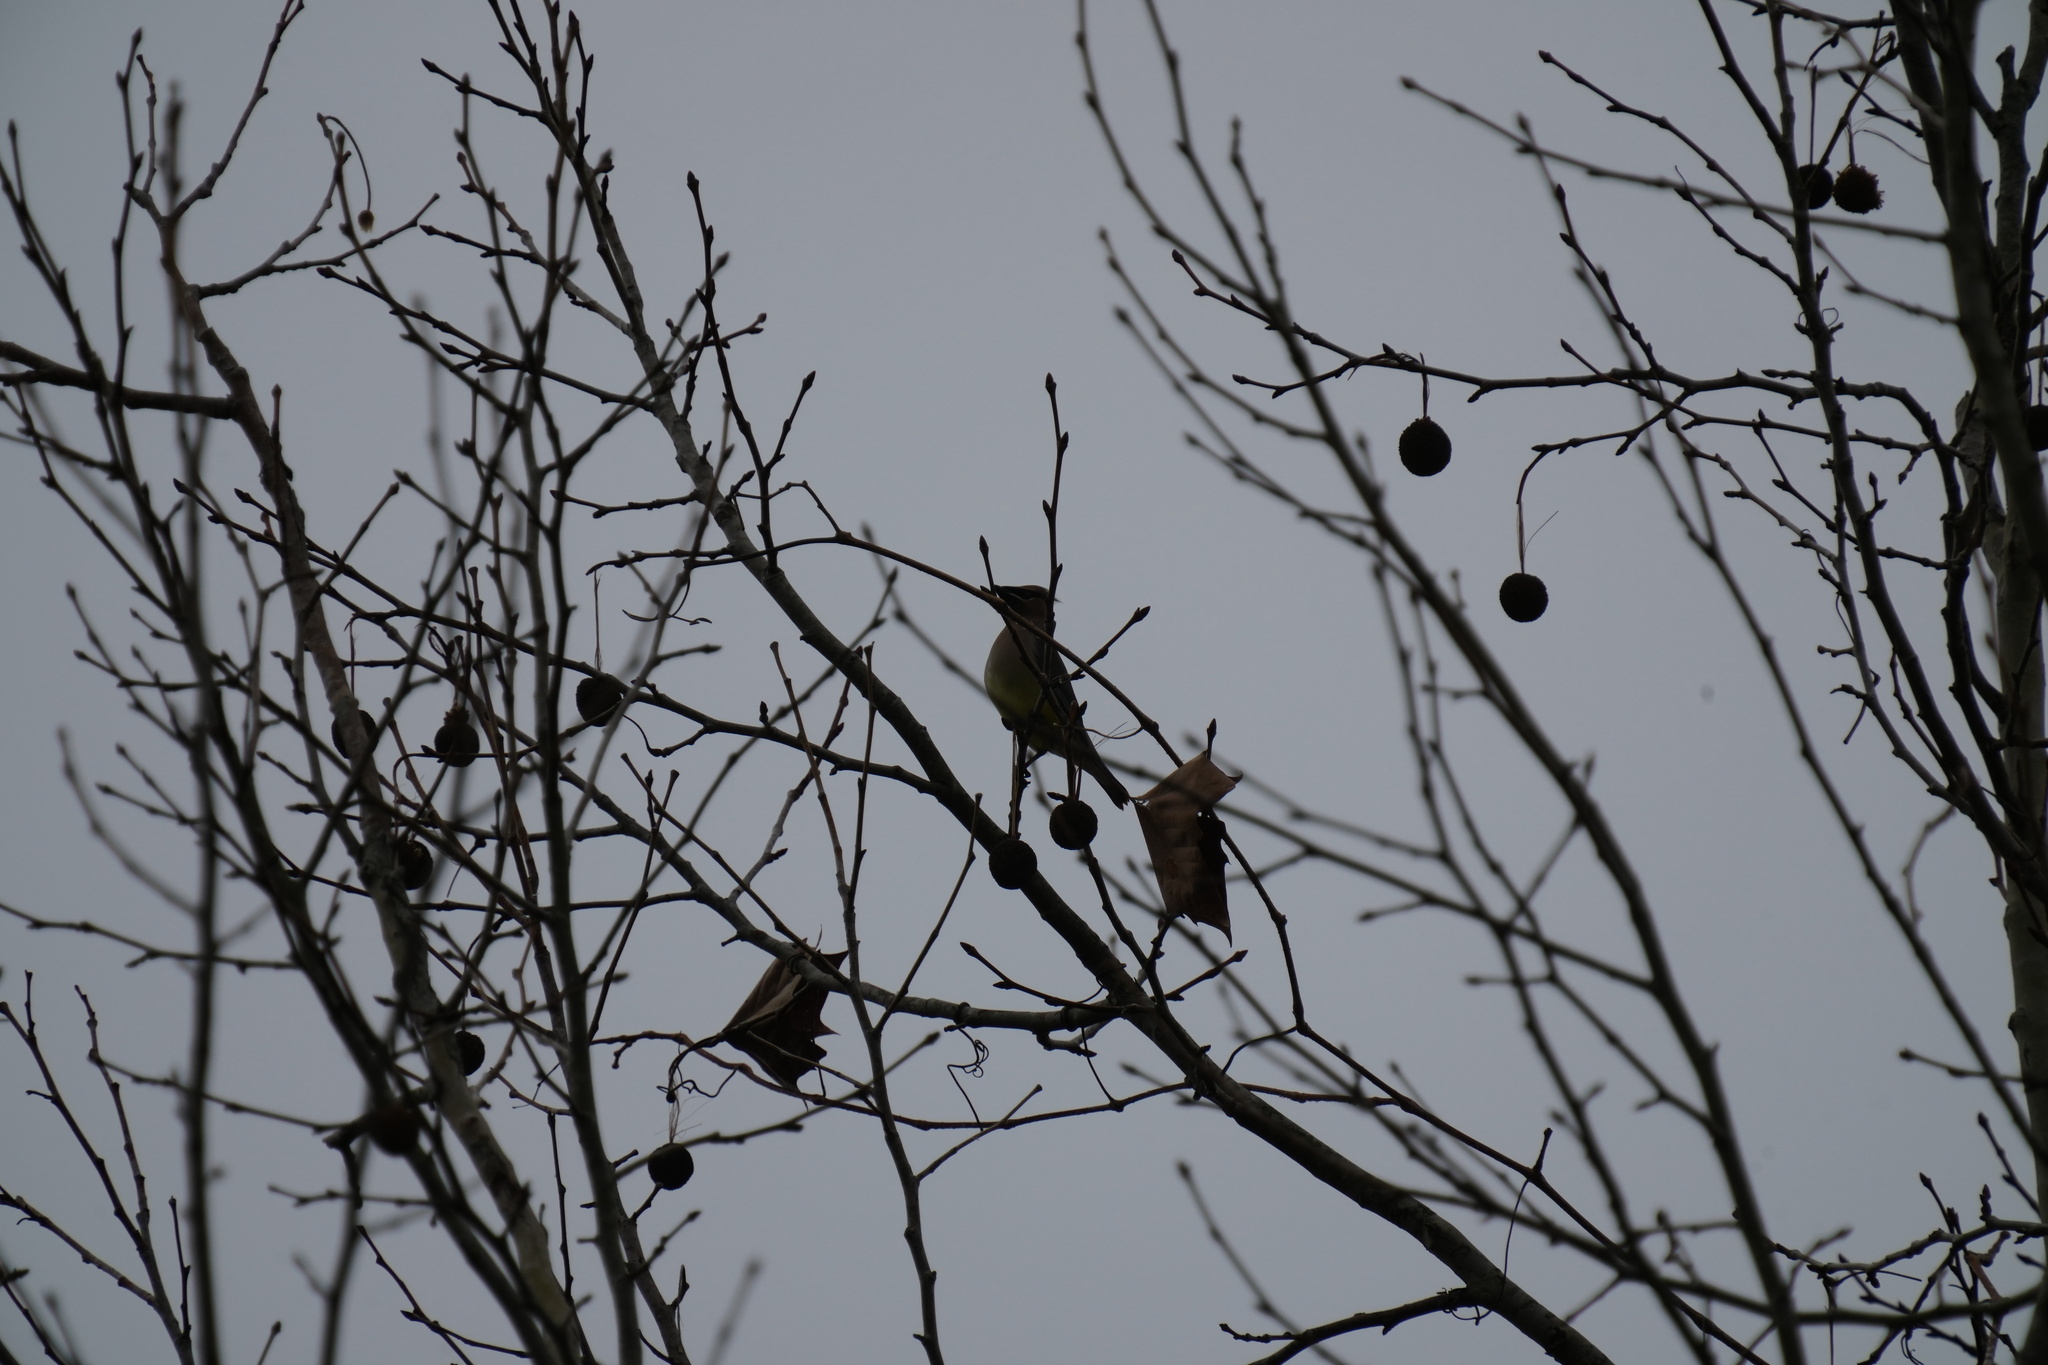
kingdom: Animalia
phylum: Chordata
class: Aves
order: Passeriformes
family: Bombycillidae
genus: Bombycilla
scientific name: Bombycilla cedrorum
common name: Cedar waxwing
